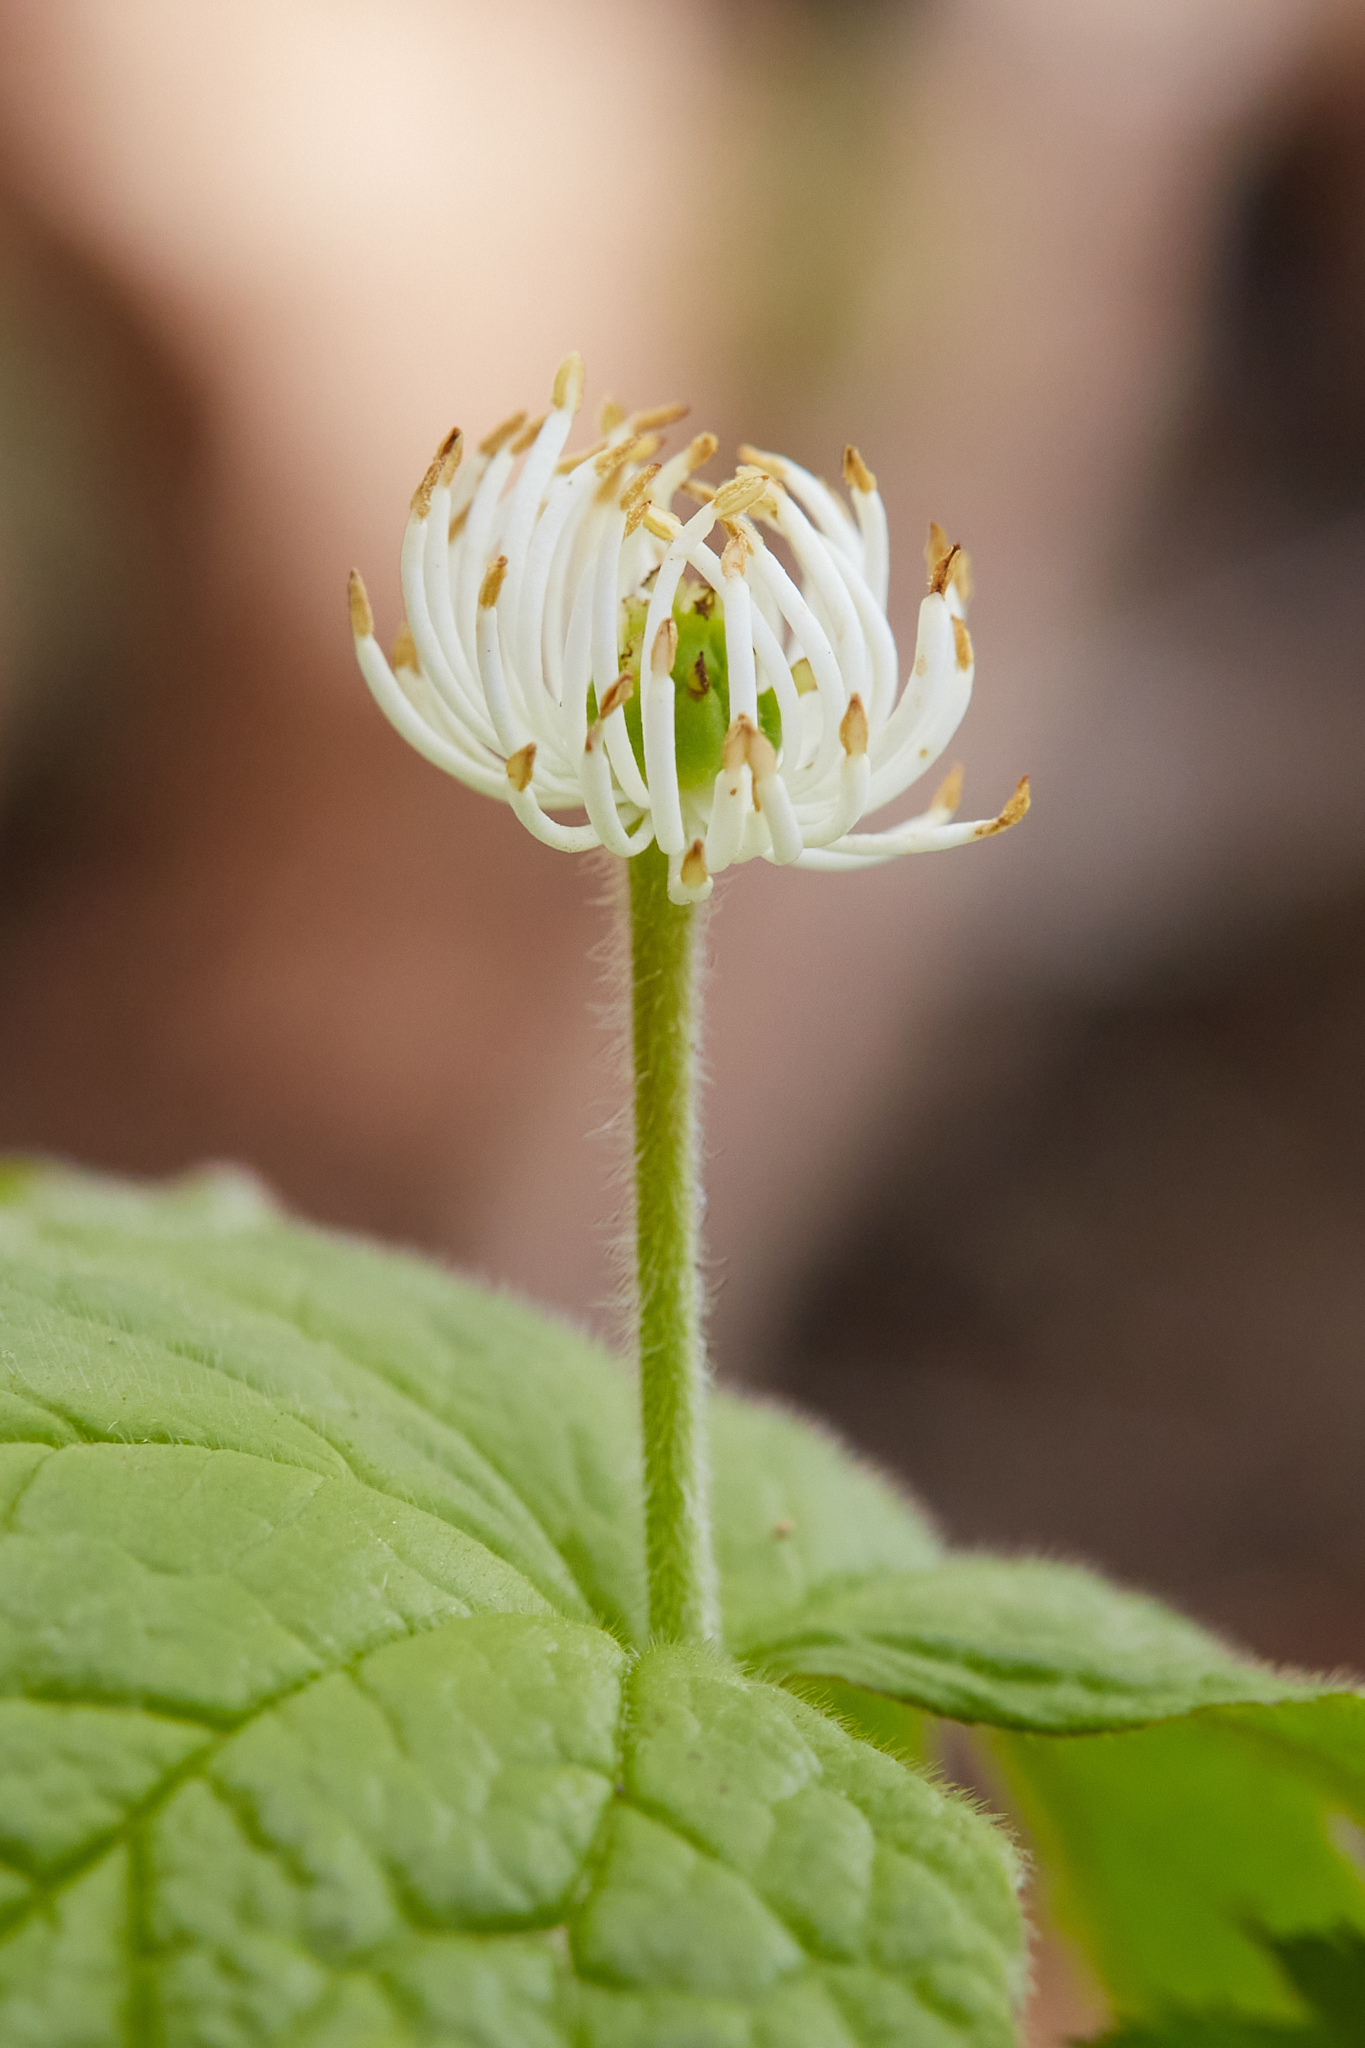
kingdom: Plantae
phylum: Tracheophyta
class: Magnoliopsida
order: Ranunculales
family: Ranunculaceae
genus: Hydrastis
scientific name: Hydrastis canadensis
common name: Goldenseal
